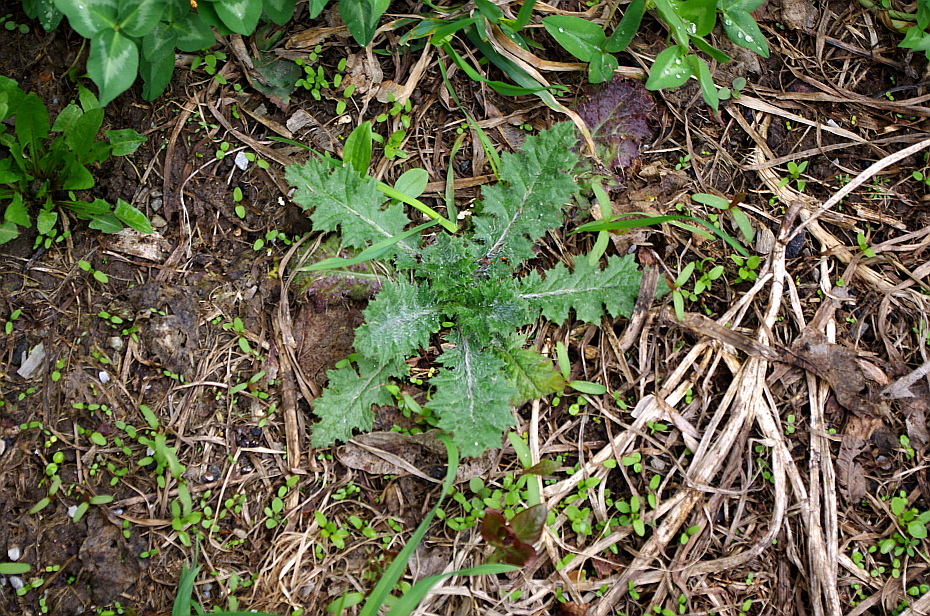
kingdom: Plantae
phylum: Tracheophyta
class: Magnoliopsida
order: Asterales
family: Asteraceae
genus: Cirsium
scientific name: Cirsium vulgare
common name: Bull thistle
